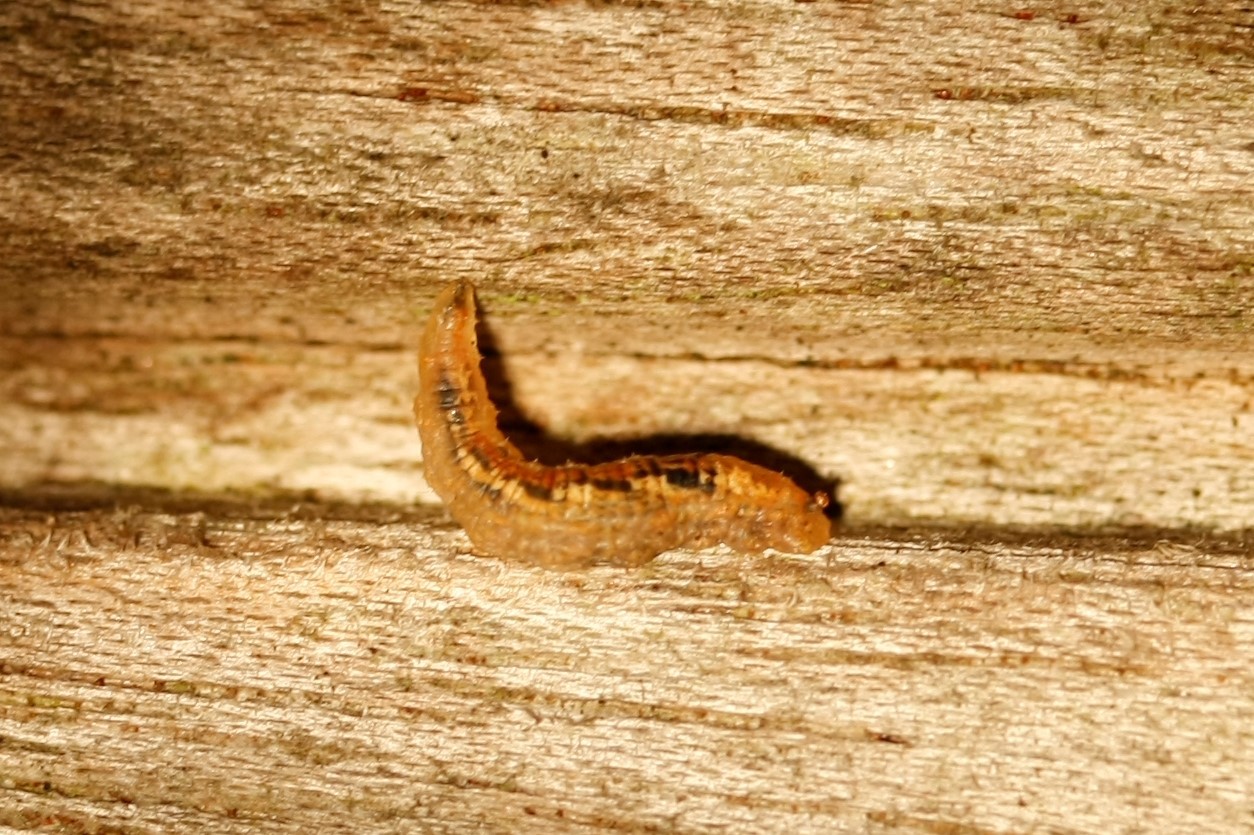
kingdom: Animalia
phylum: Arthropoda
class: Insecta
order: Diptera
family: Syrphidae
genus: Syrphus
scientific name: Syrphus
